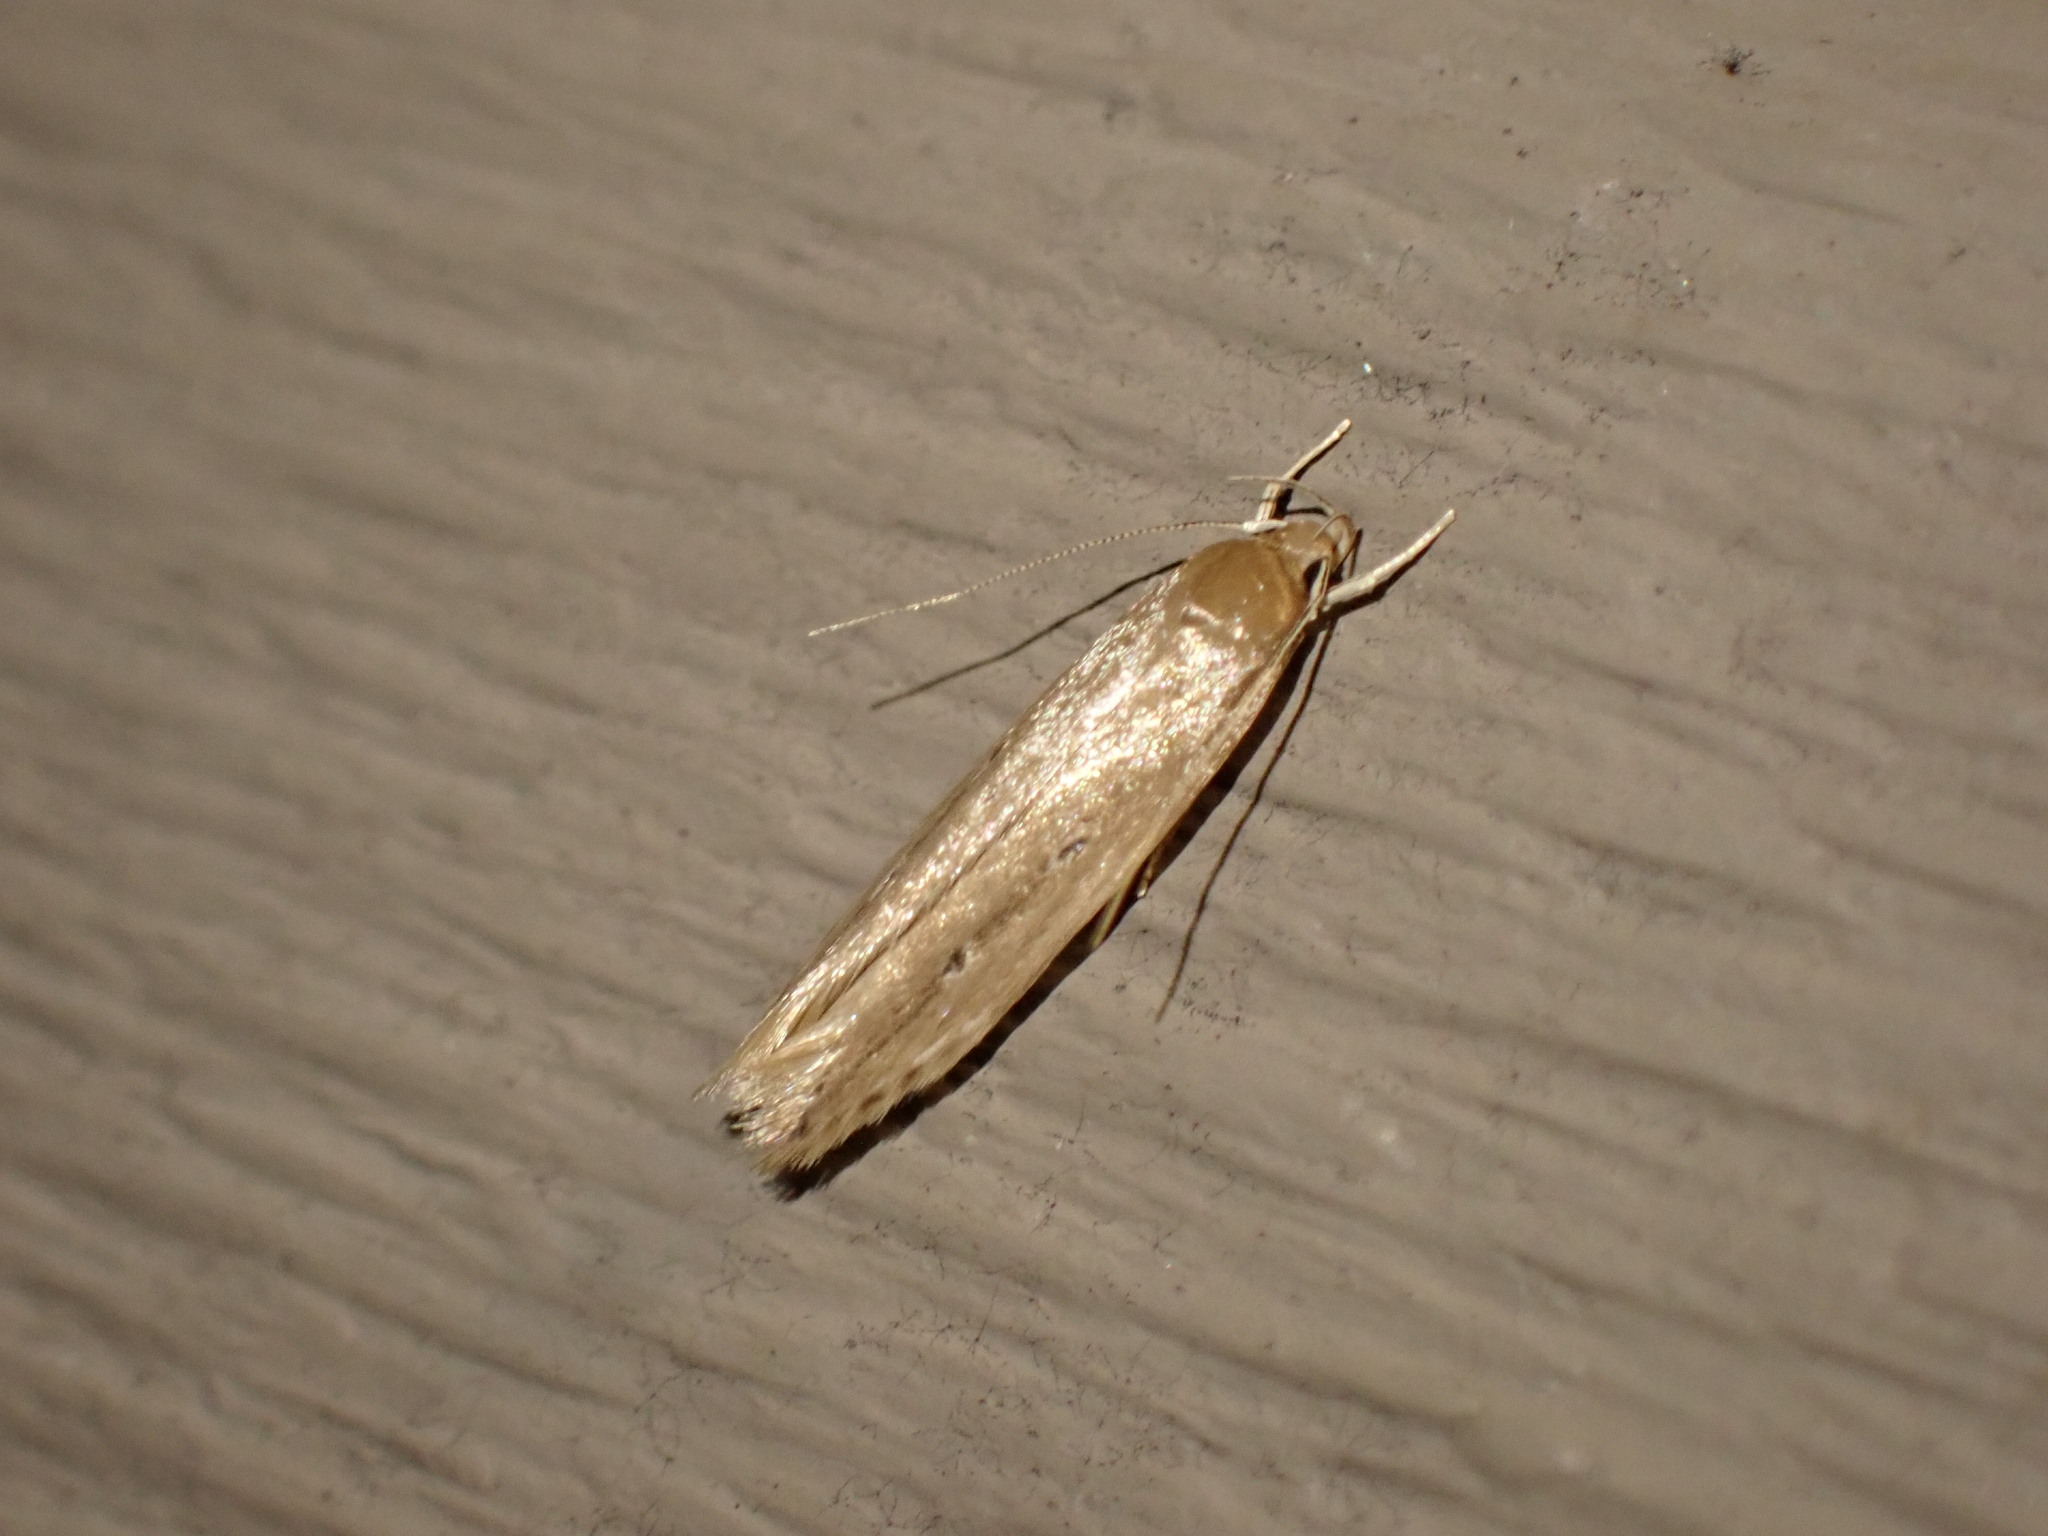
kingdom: Animalia
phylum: Arthropoda
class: Insecta
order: Lepidoptera
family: Cosmopterigidae
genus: Limnaecia
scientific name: Limnaecia phragmitella
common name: Bulrush cosmet
